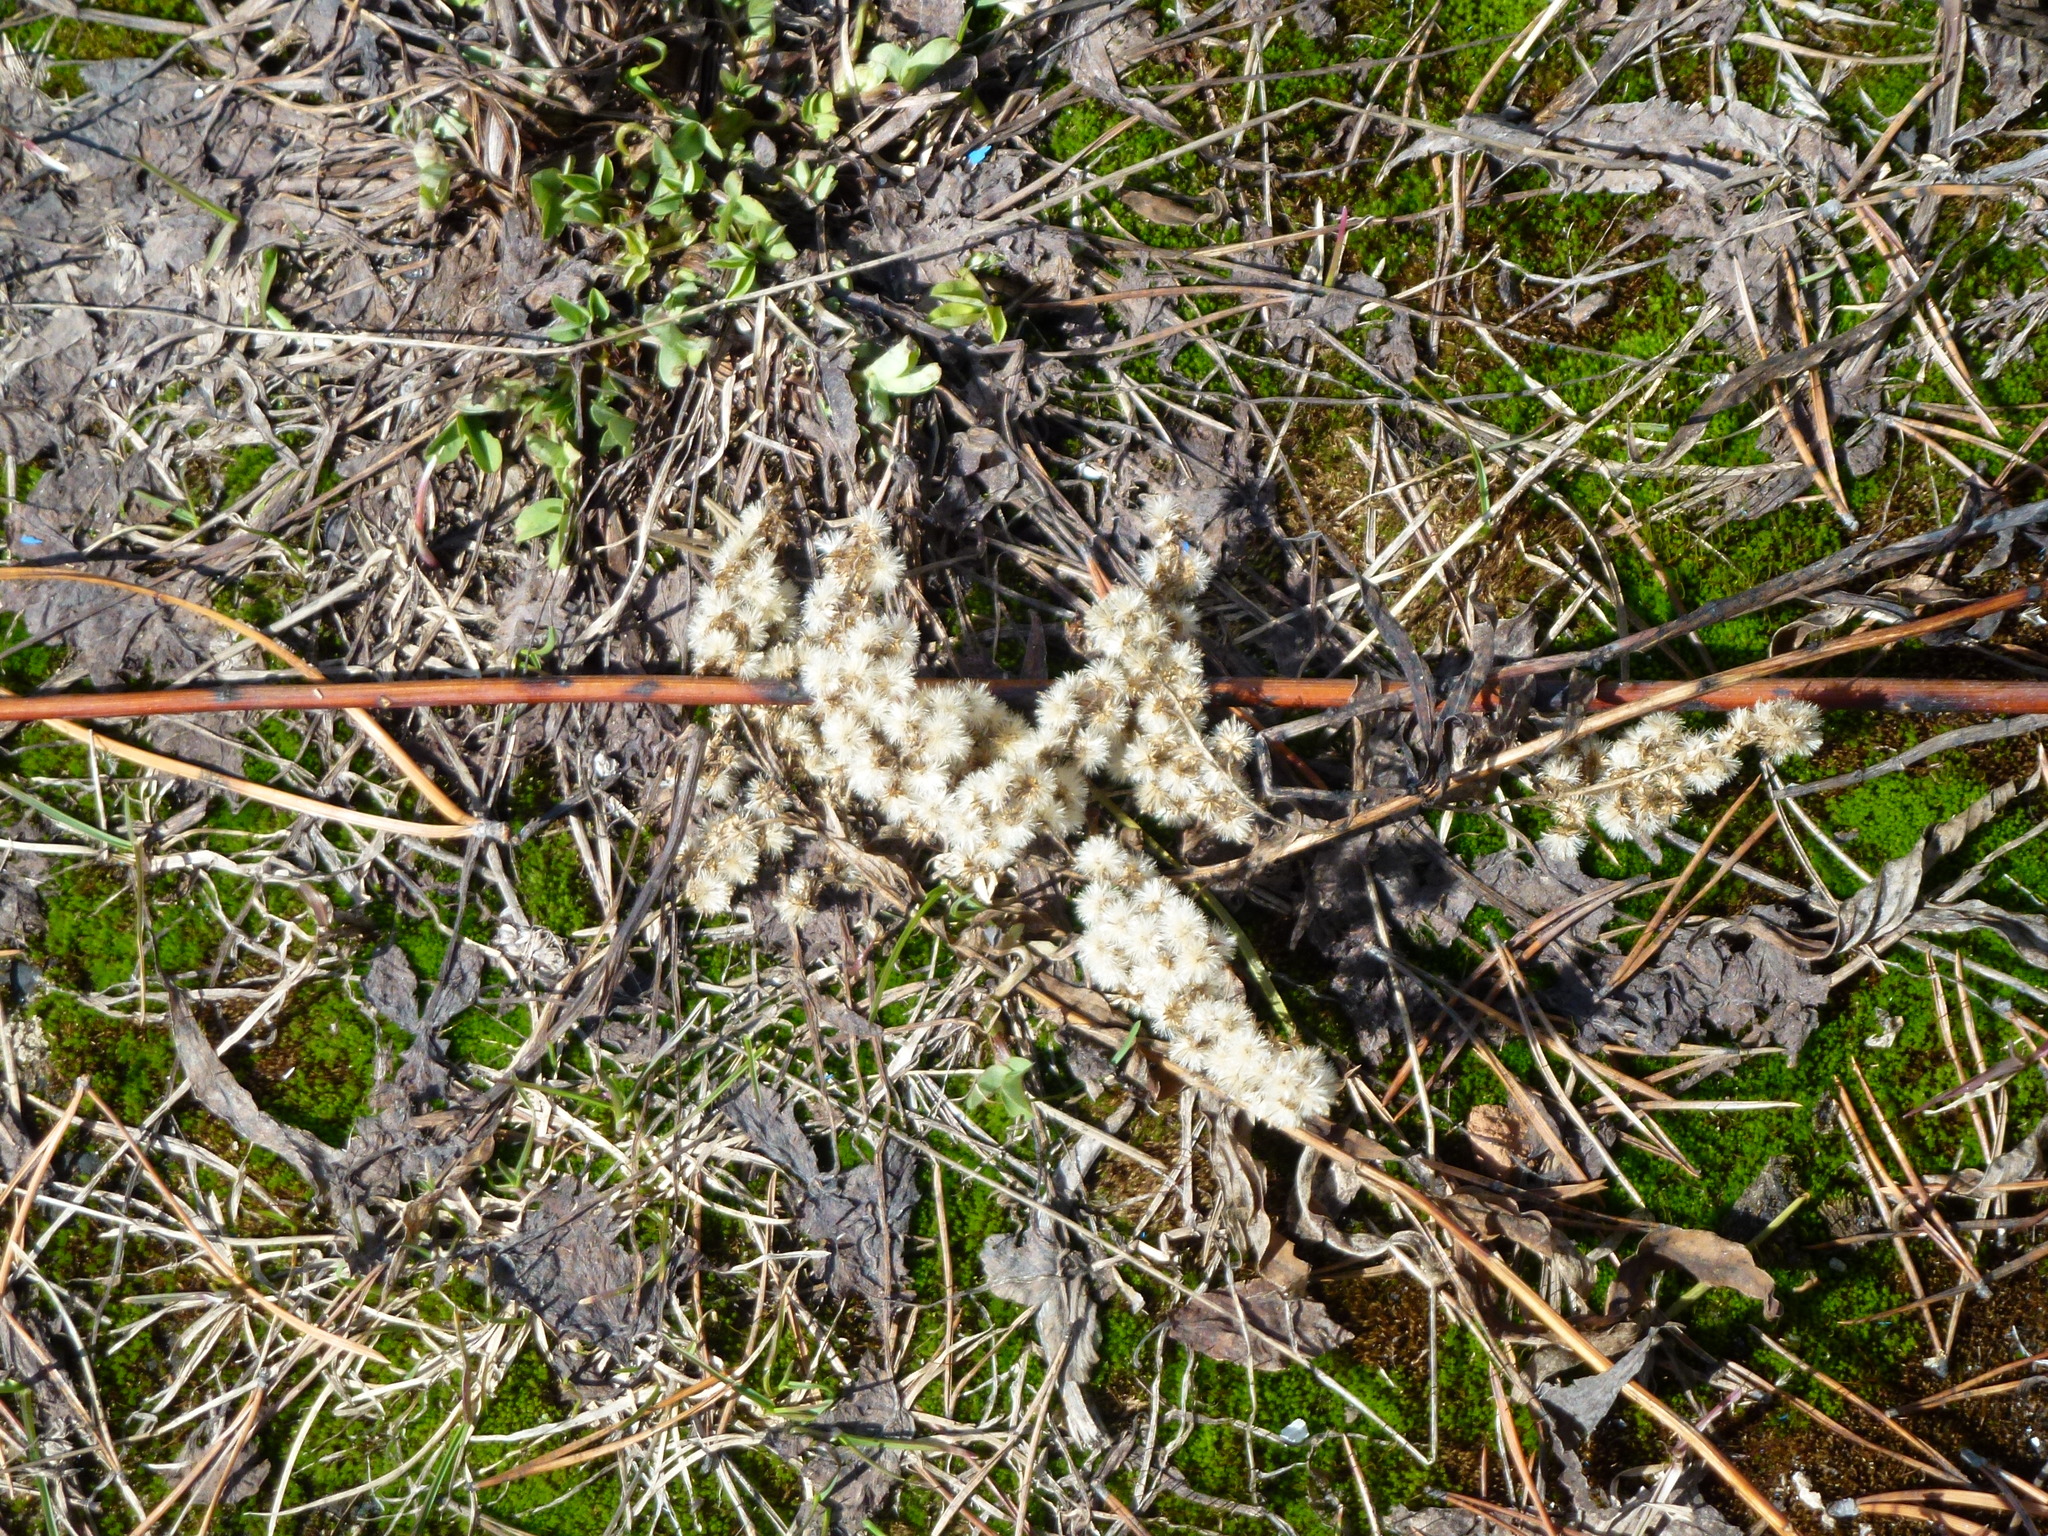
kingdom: Plantae
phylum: Tracheophyta
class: Magnoliopsida
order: Asterales
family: Asteraceae
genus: Solidago
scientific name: Solidago gigantea
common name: Giant goldenrod
